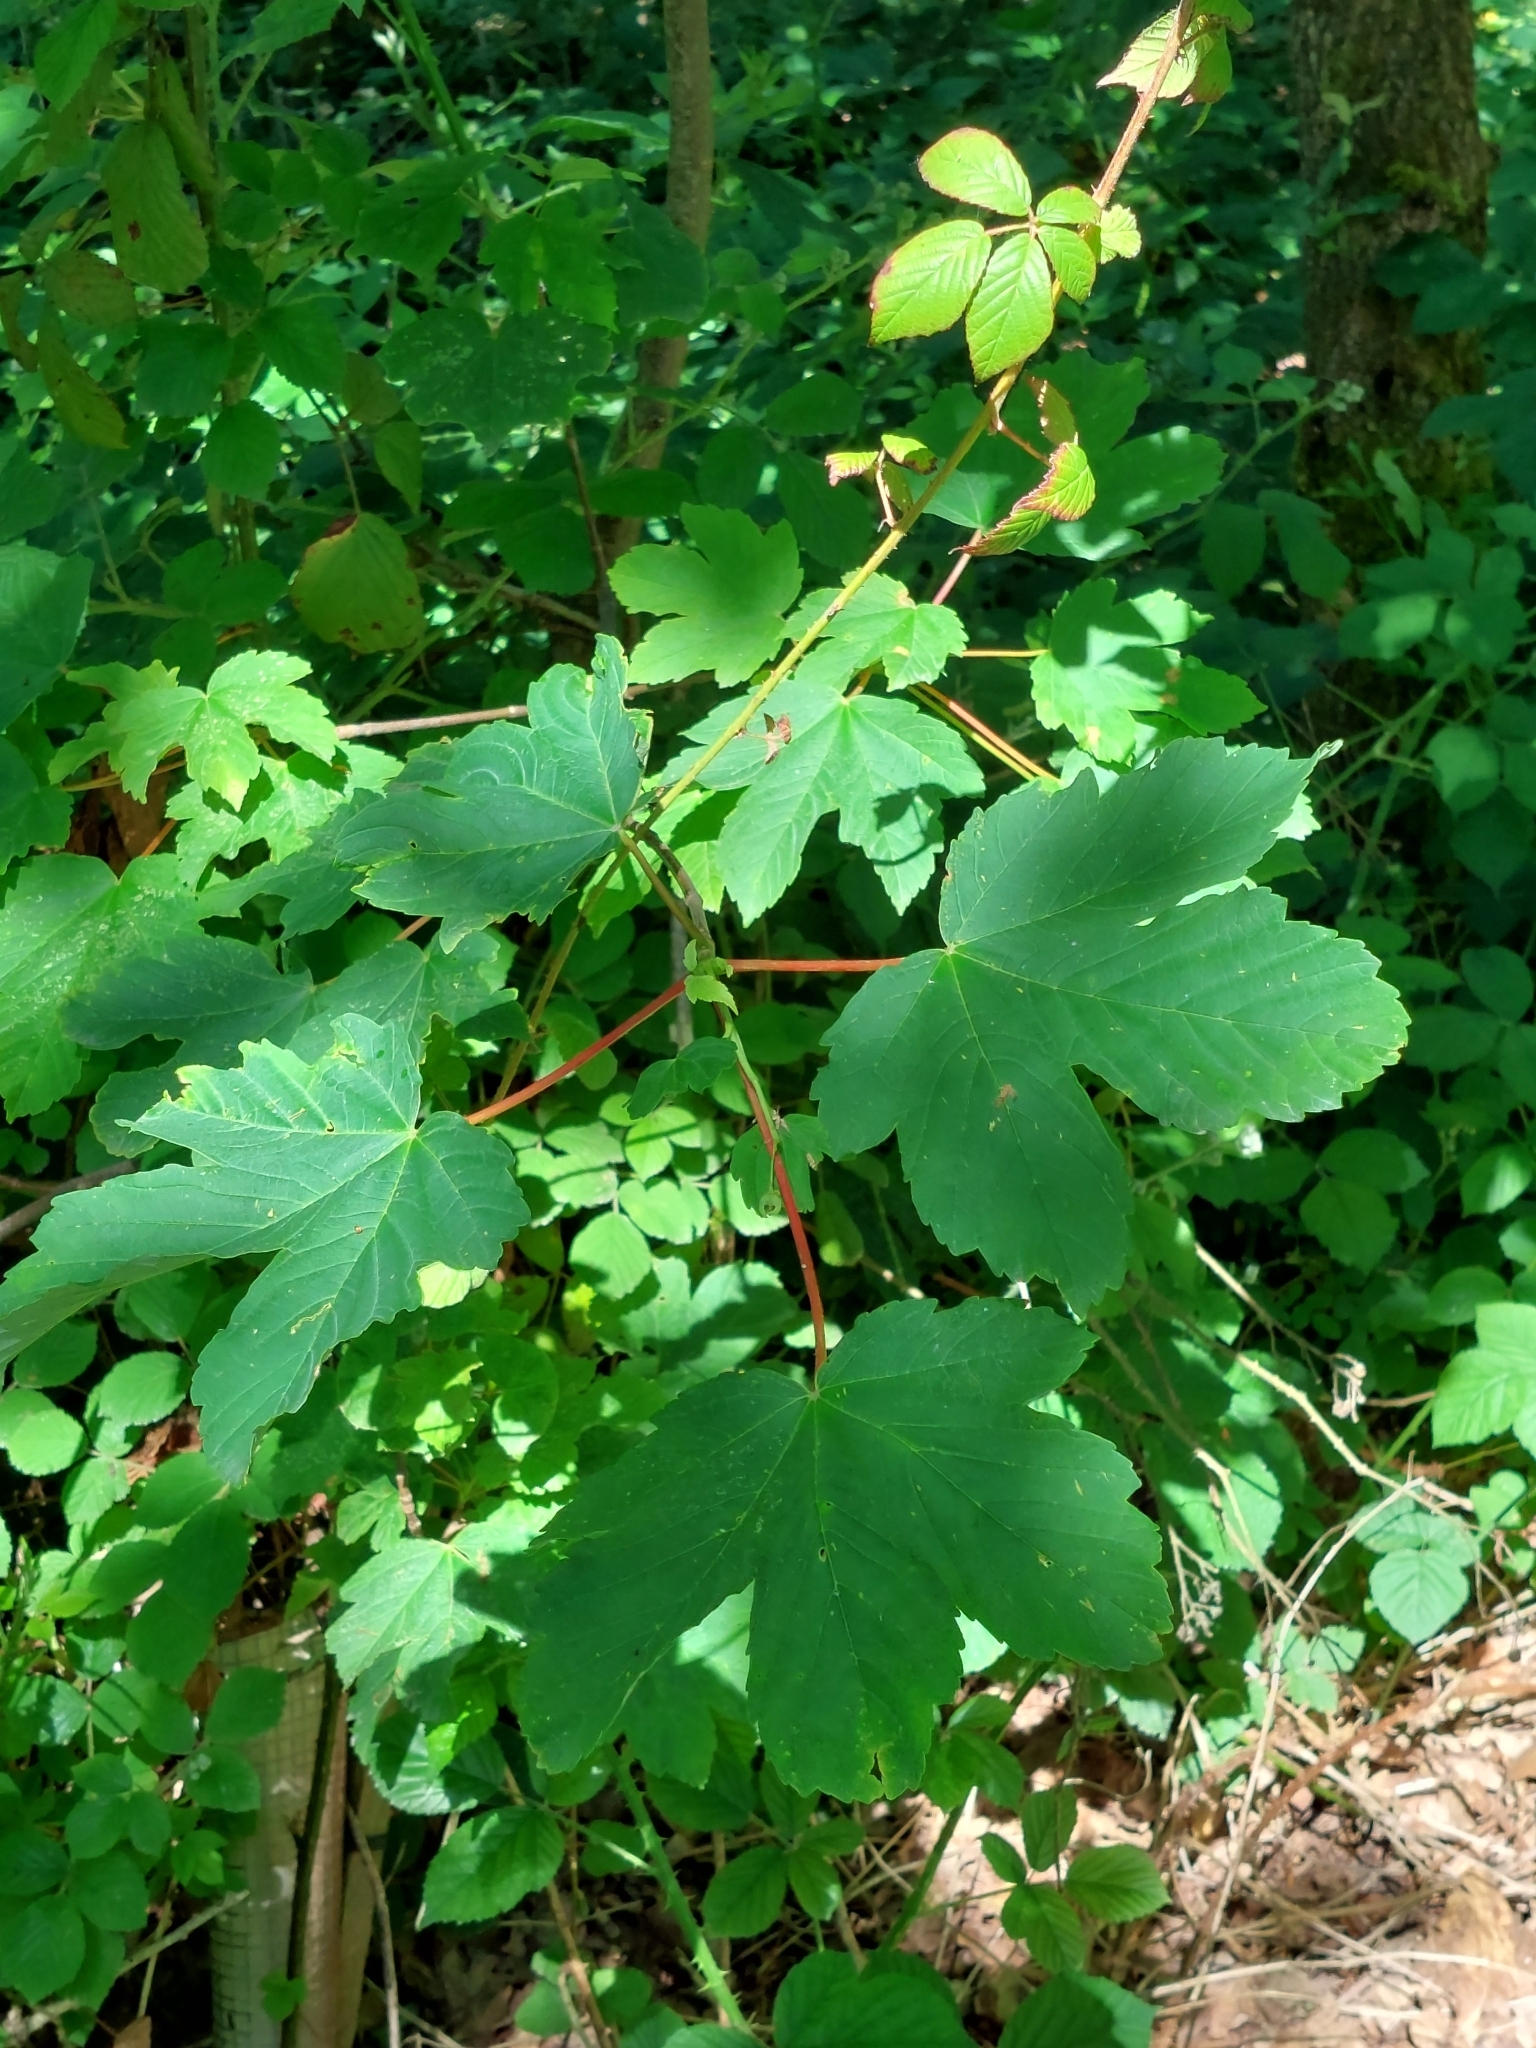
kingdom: Plantae
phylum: Tracheophyta
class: Magnoliopsida
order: Sapindales
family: Sapindaceae
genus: Acer
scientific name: Acer pseudoplatanus
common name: Sycamore
